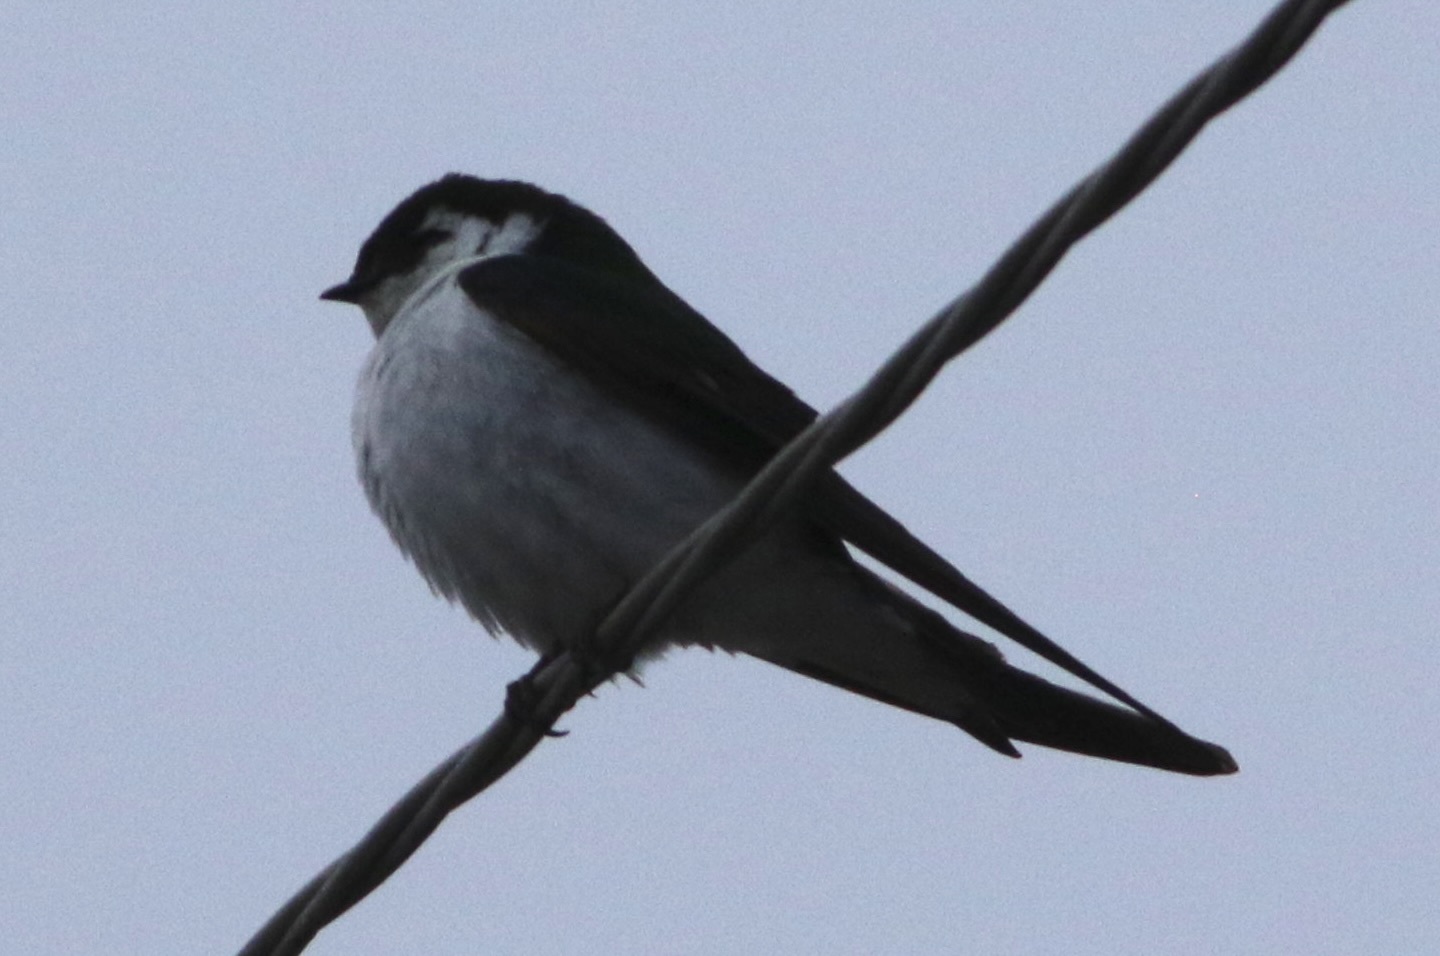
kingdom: Animalia
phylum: Chordata
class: Aves
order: Passeriformes
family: Hirundinidae
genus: Tachycineta
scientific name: Tachycineta thalassina
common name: Violet-green swallow
